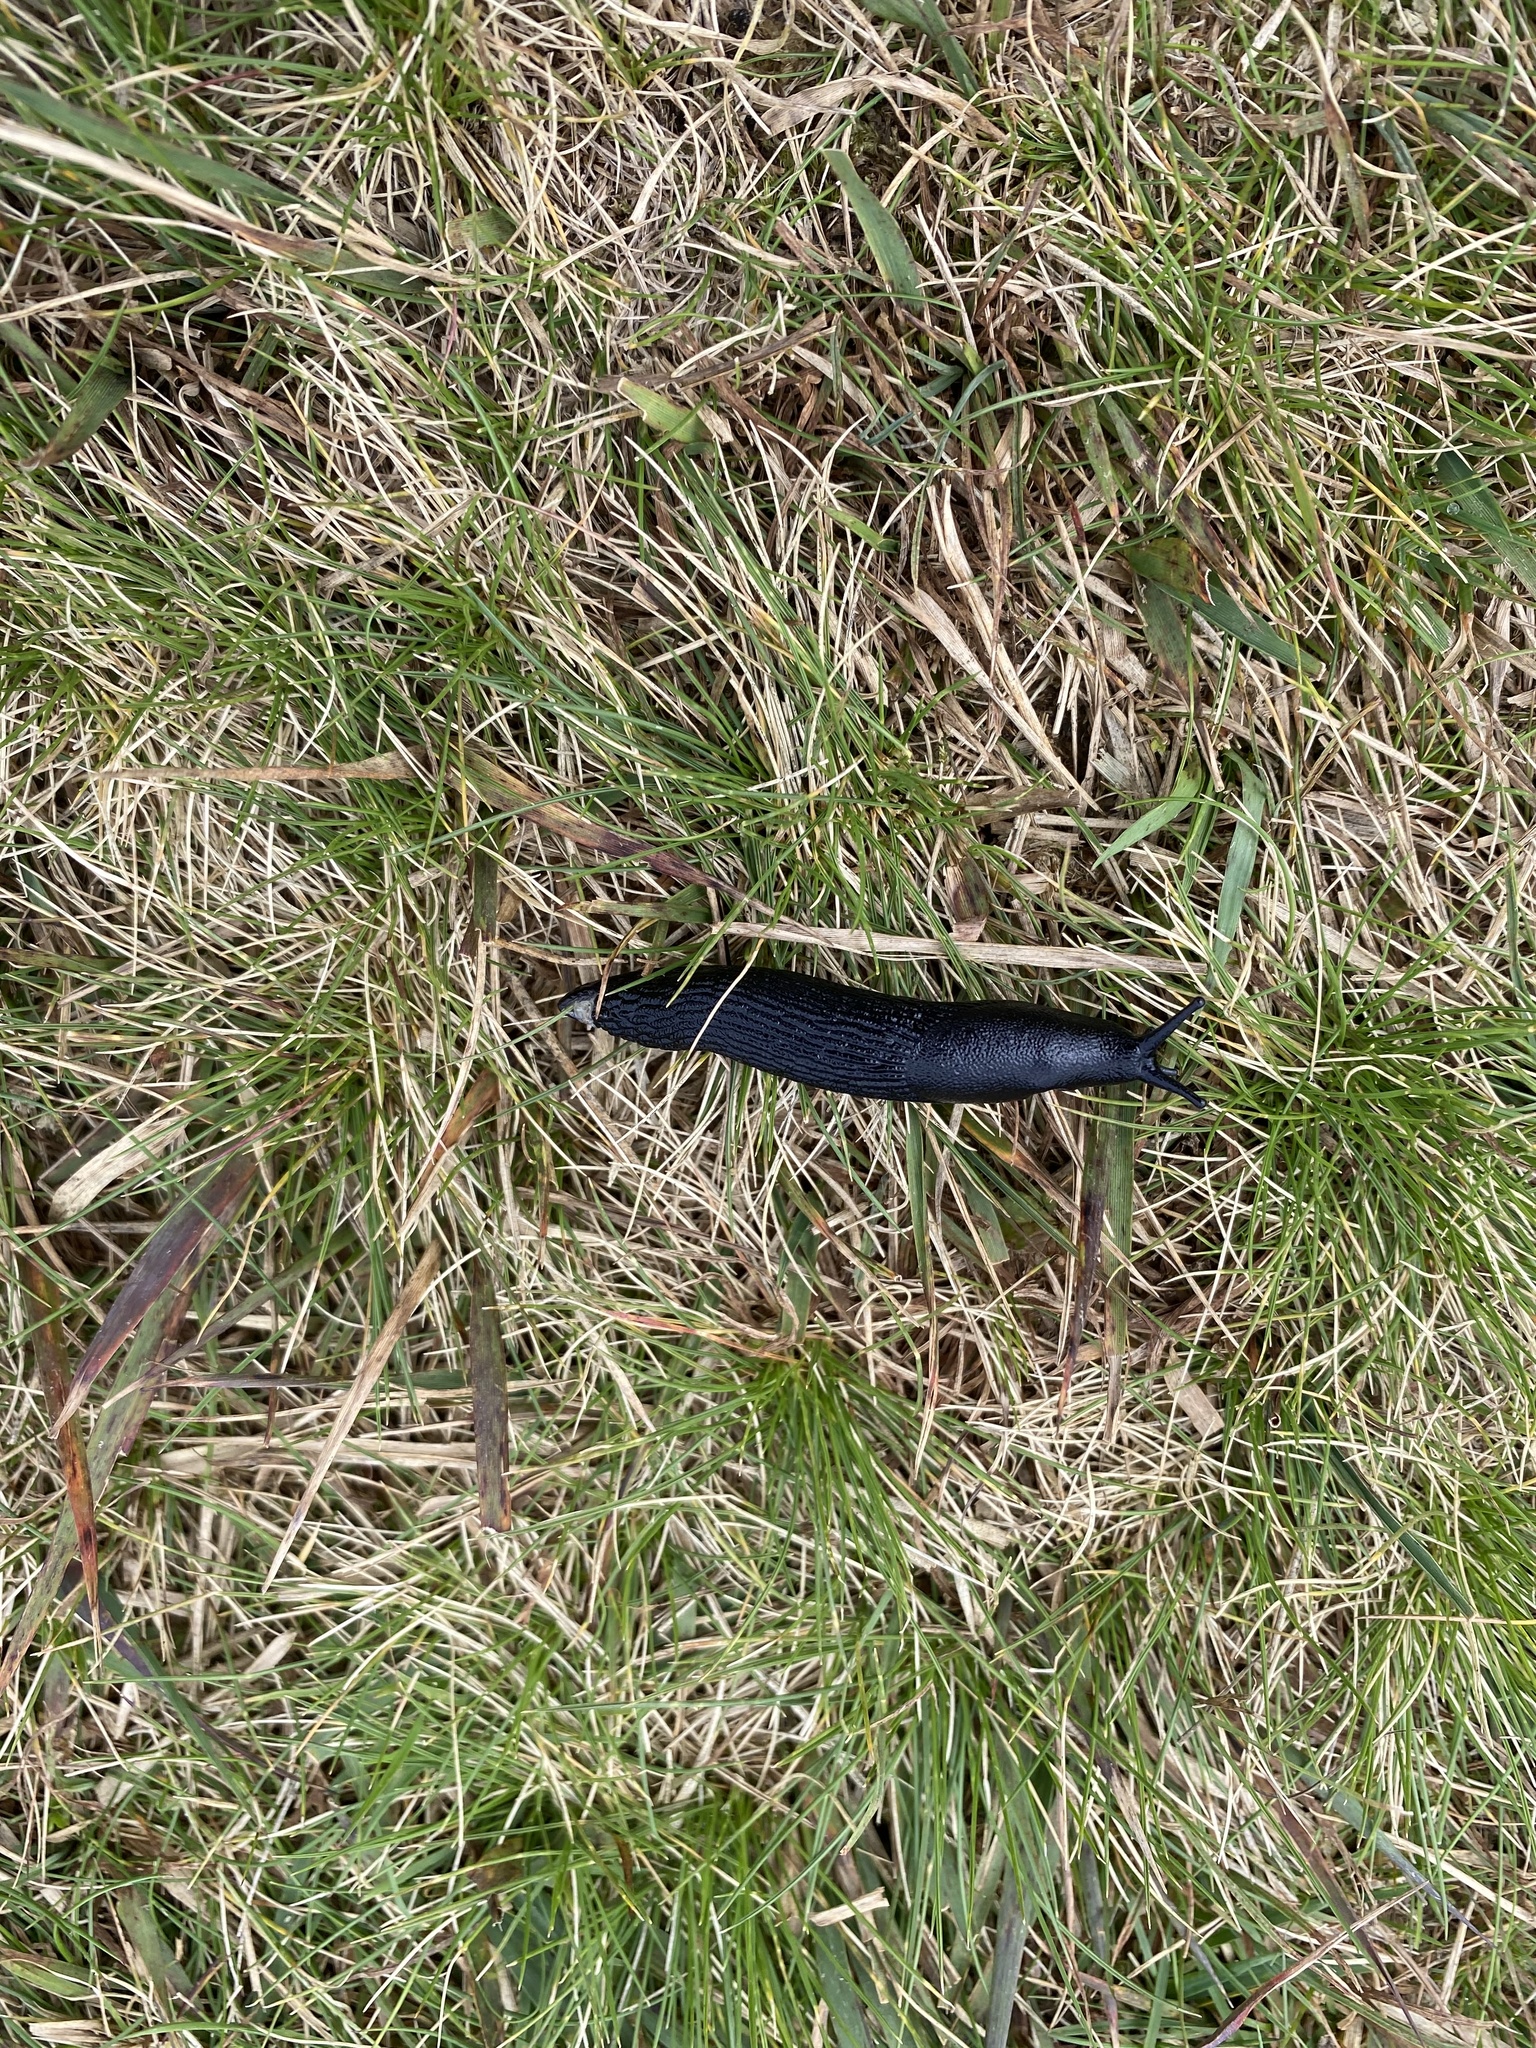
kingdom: Animalia
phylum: Mollusca
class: Gastropoda
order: Stylommatophora
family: Arionidae
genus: Arion
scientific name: Arion ater
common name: Black arion
